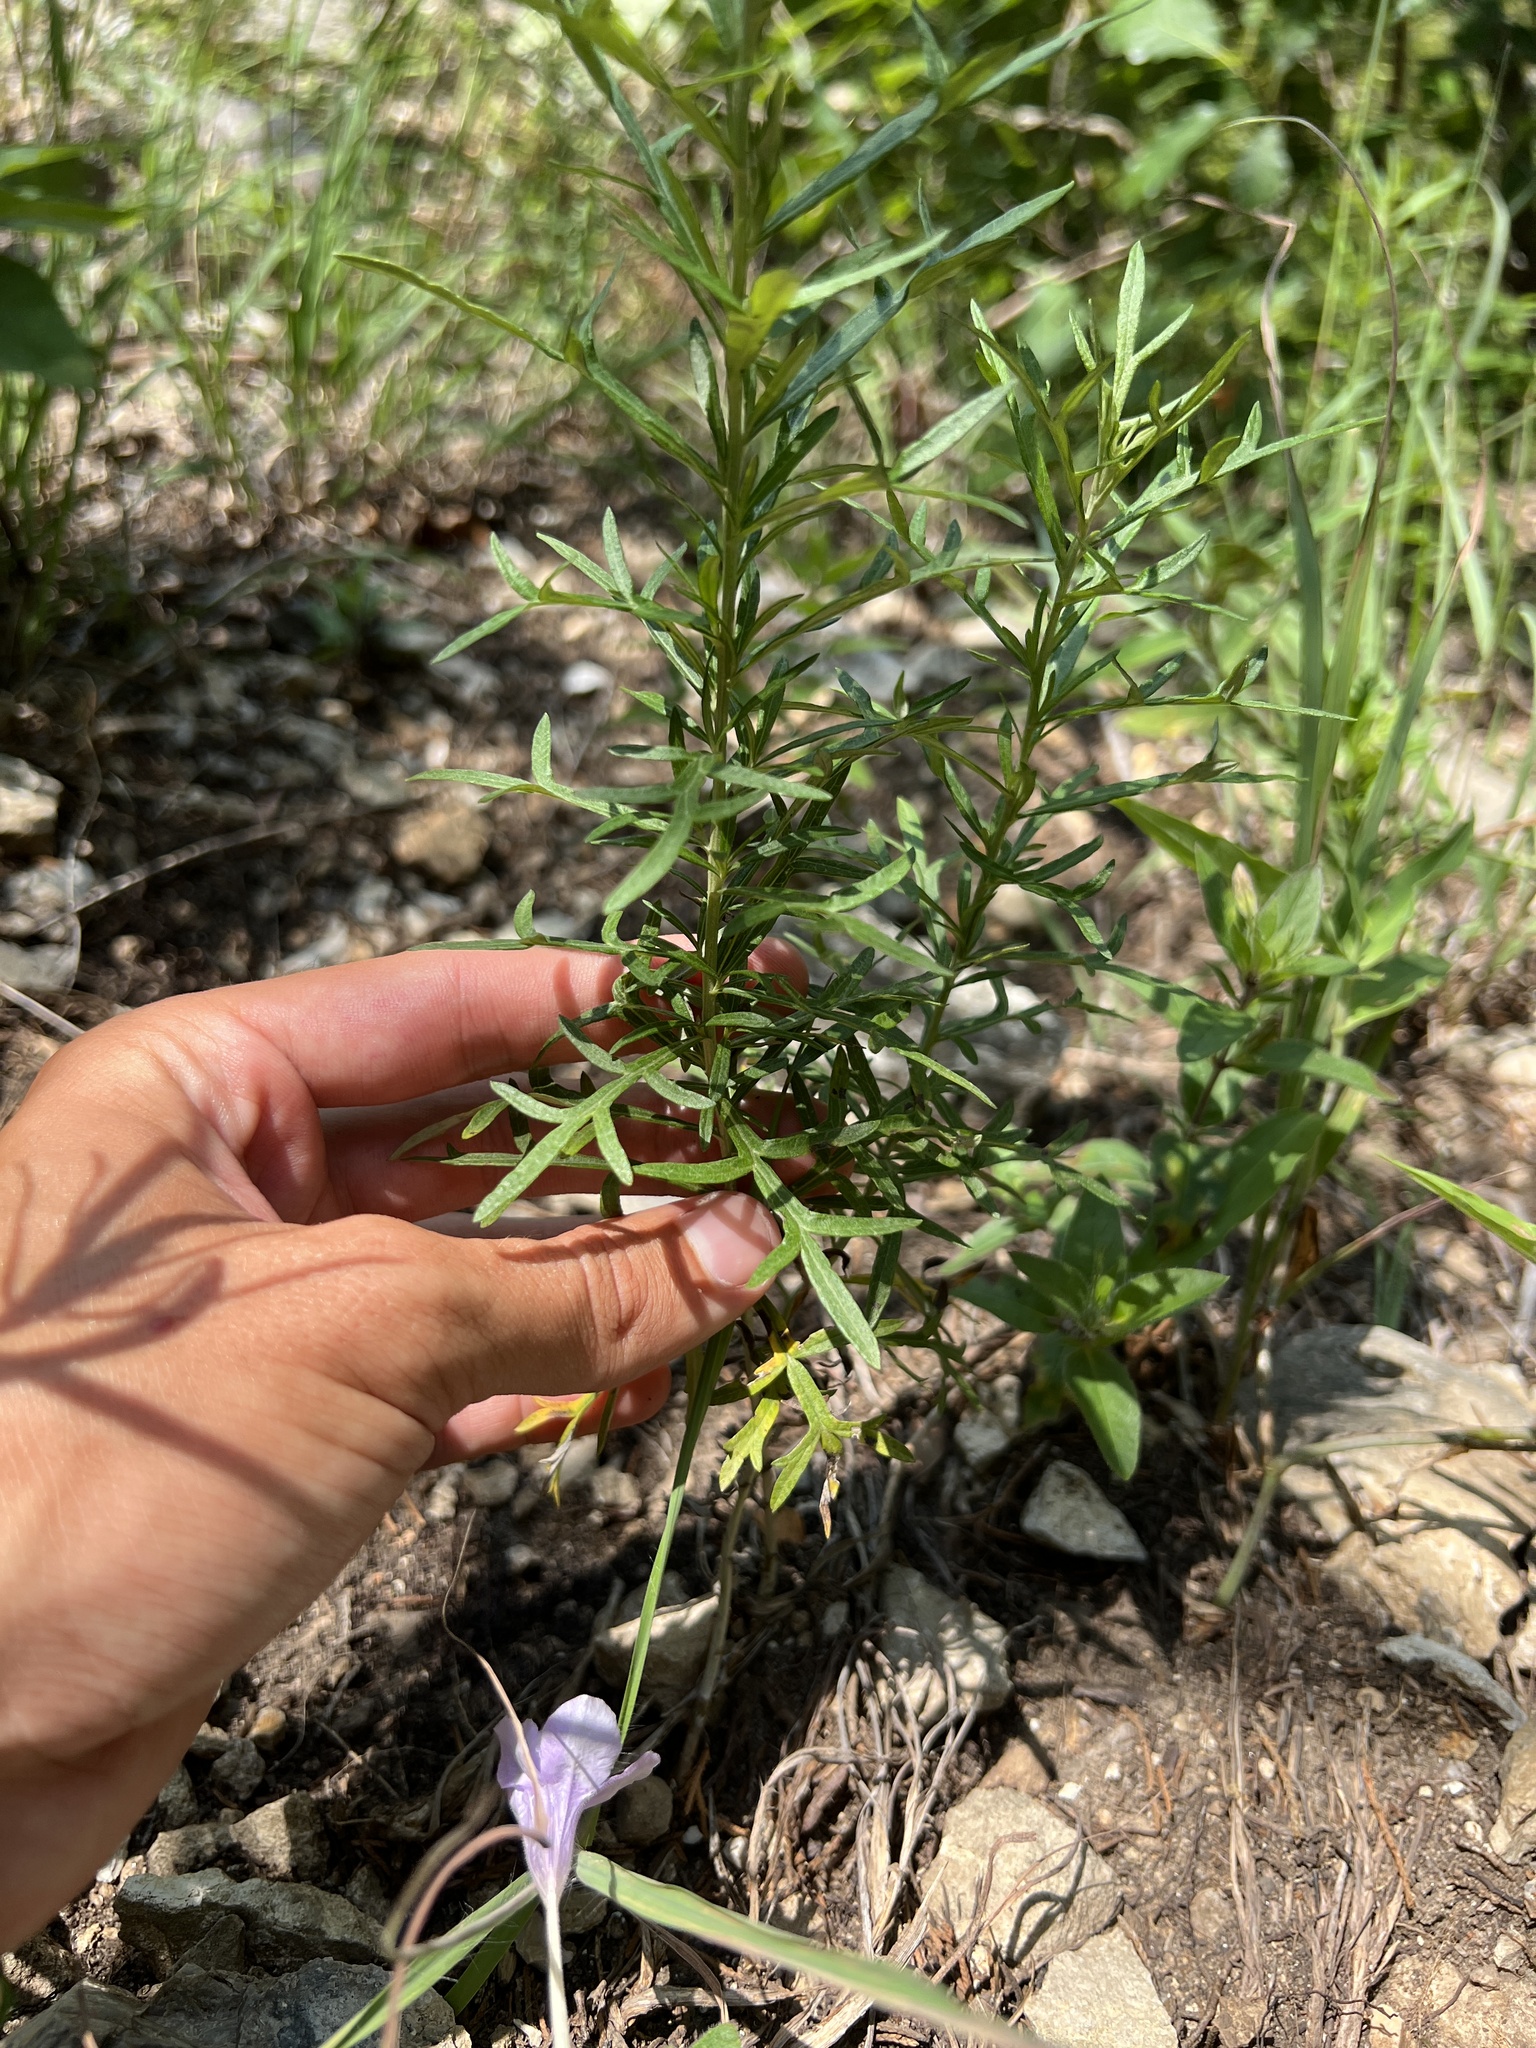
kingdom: Plantae
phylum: Tracheophyta
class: Magnoliopsida
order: Asterales
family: Asteraceae
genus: Artemisia
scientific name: Artemisia ludoviciana
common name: Western mugwort
